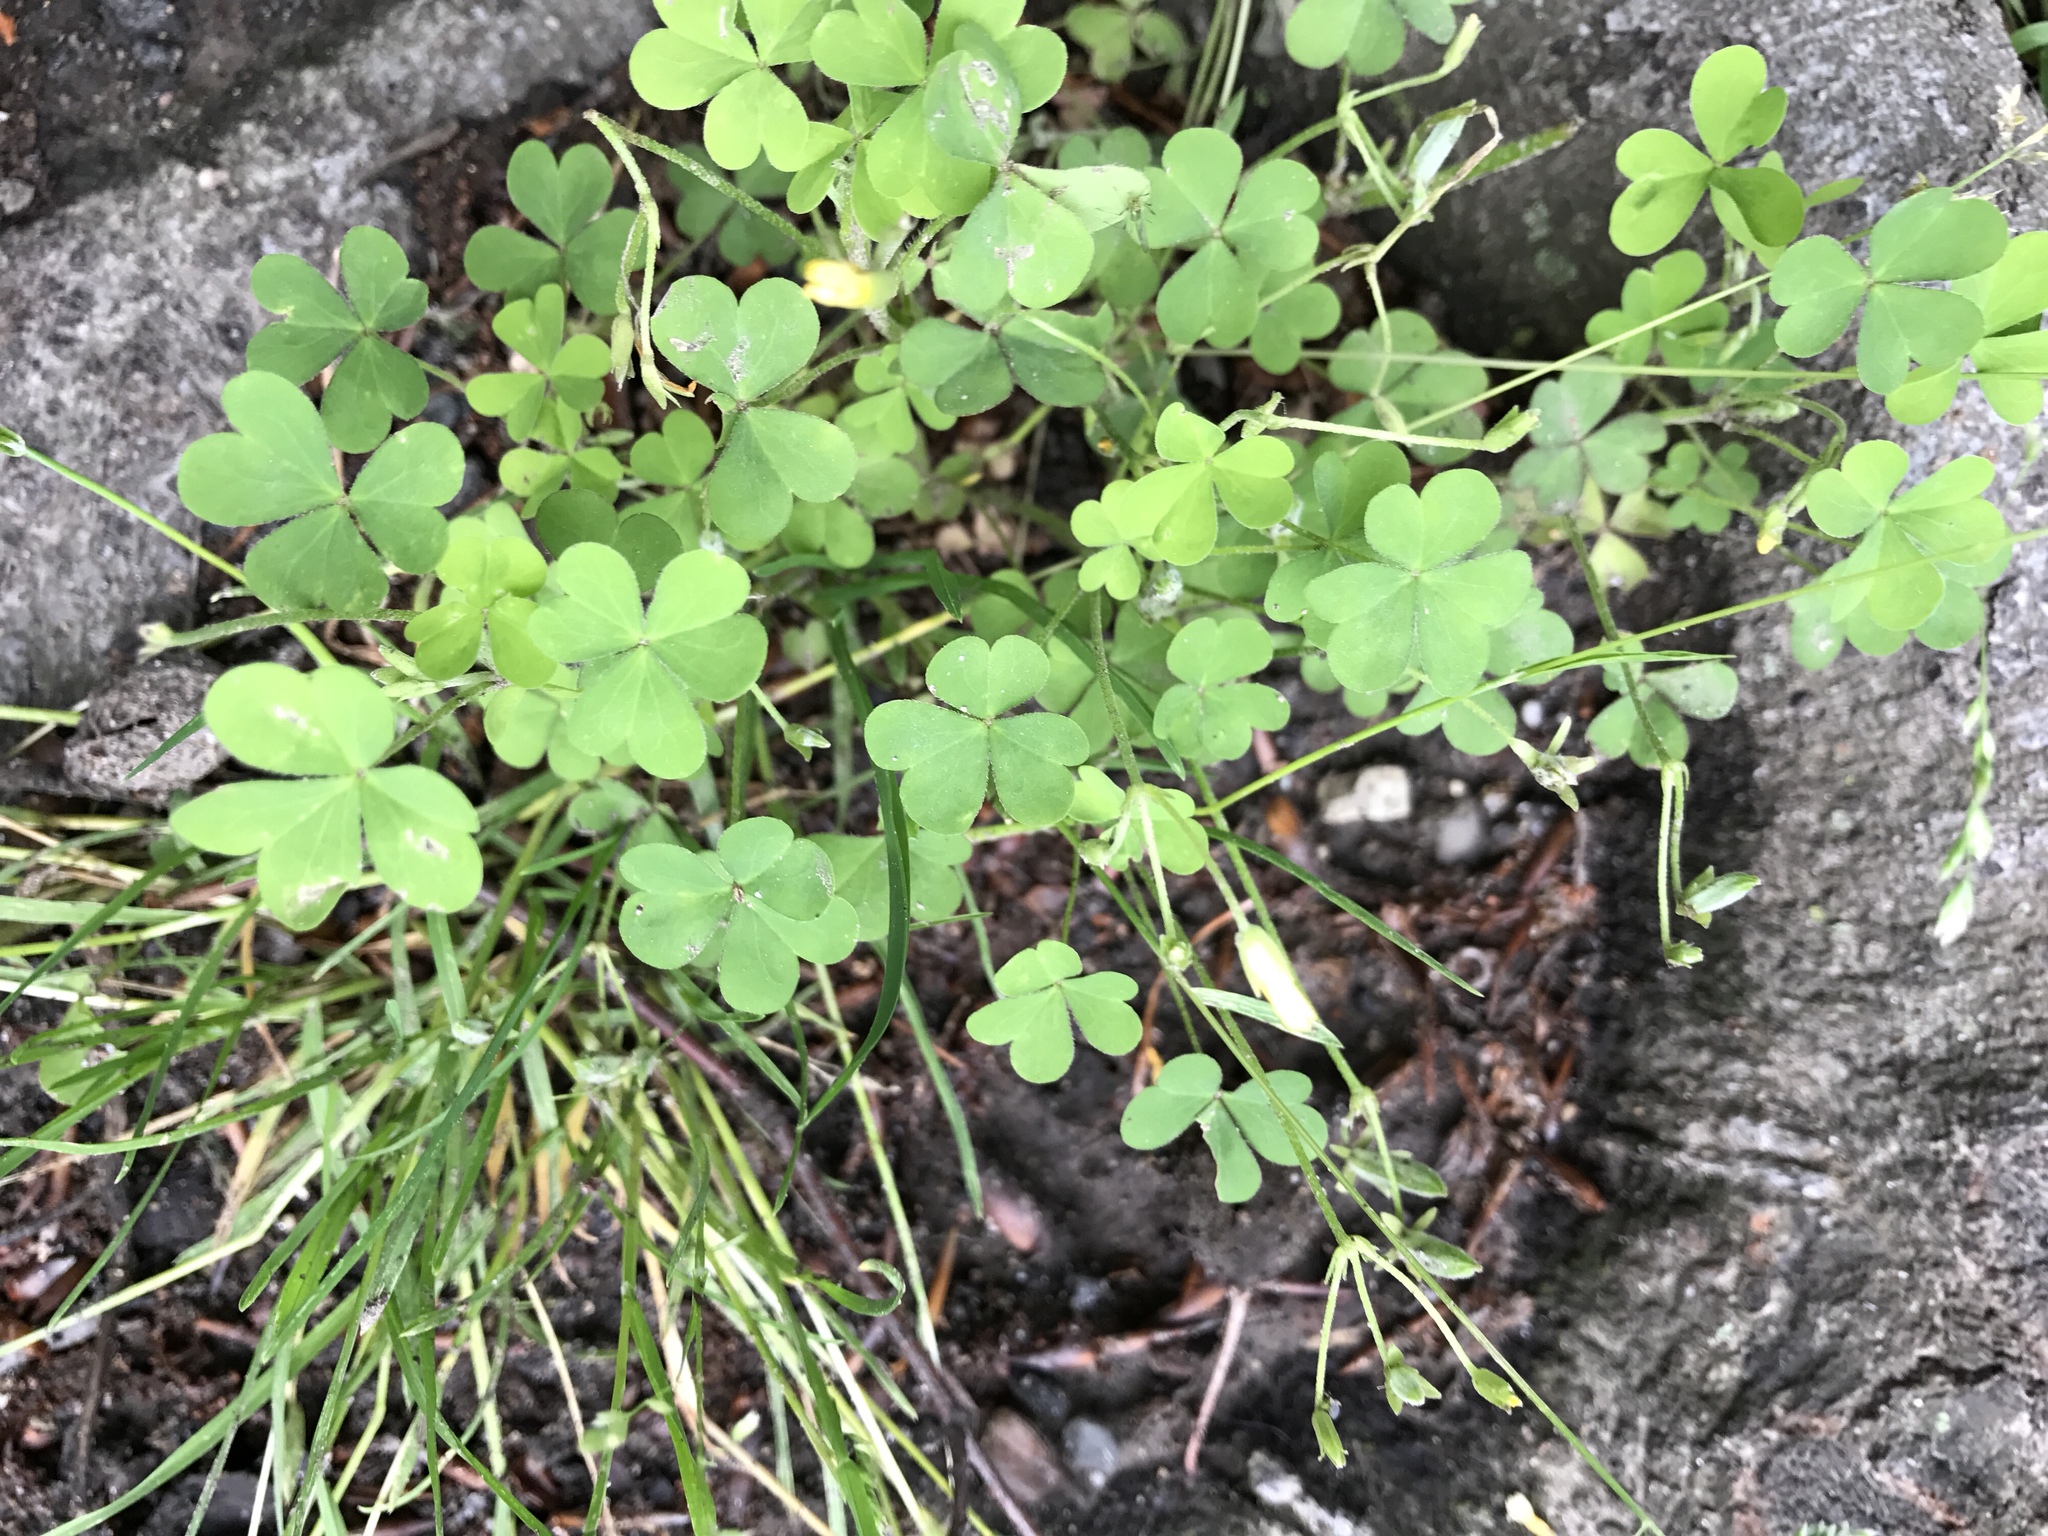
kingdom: Plantae
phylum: Tracheophyta
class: Magnoliopsida
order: Oxalidales
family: Oxalidaceae
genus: Oxalis
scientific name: Oxalis stricta
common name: Upright yellow-sorrel
